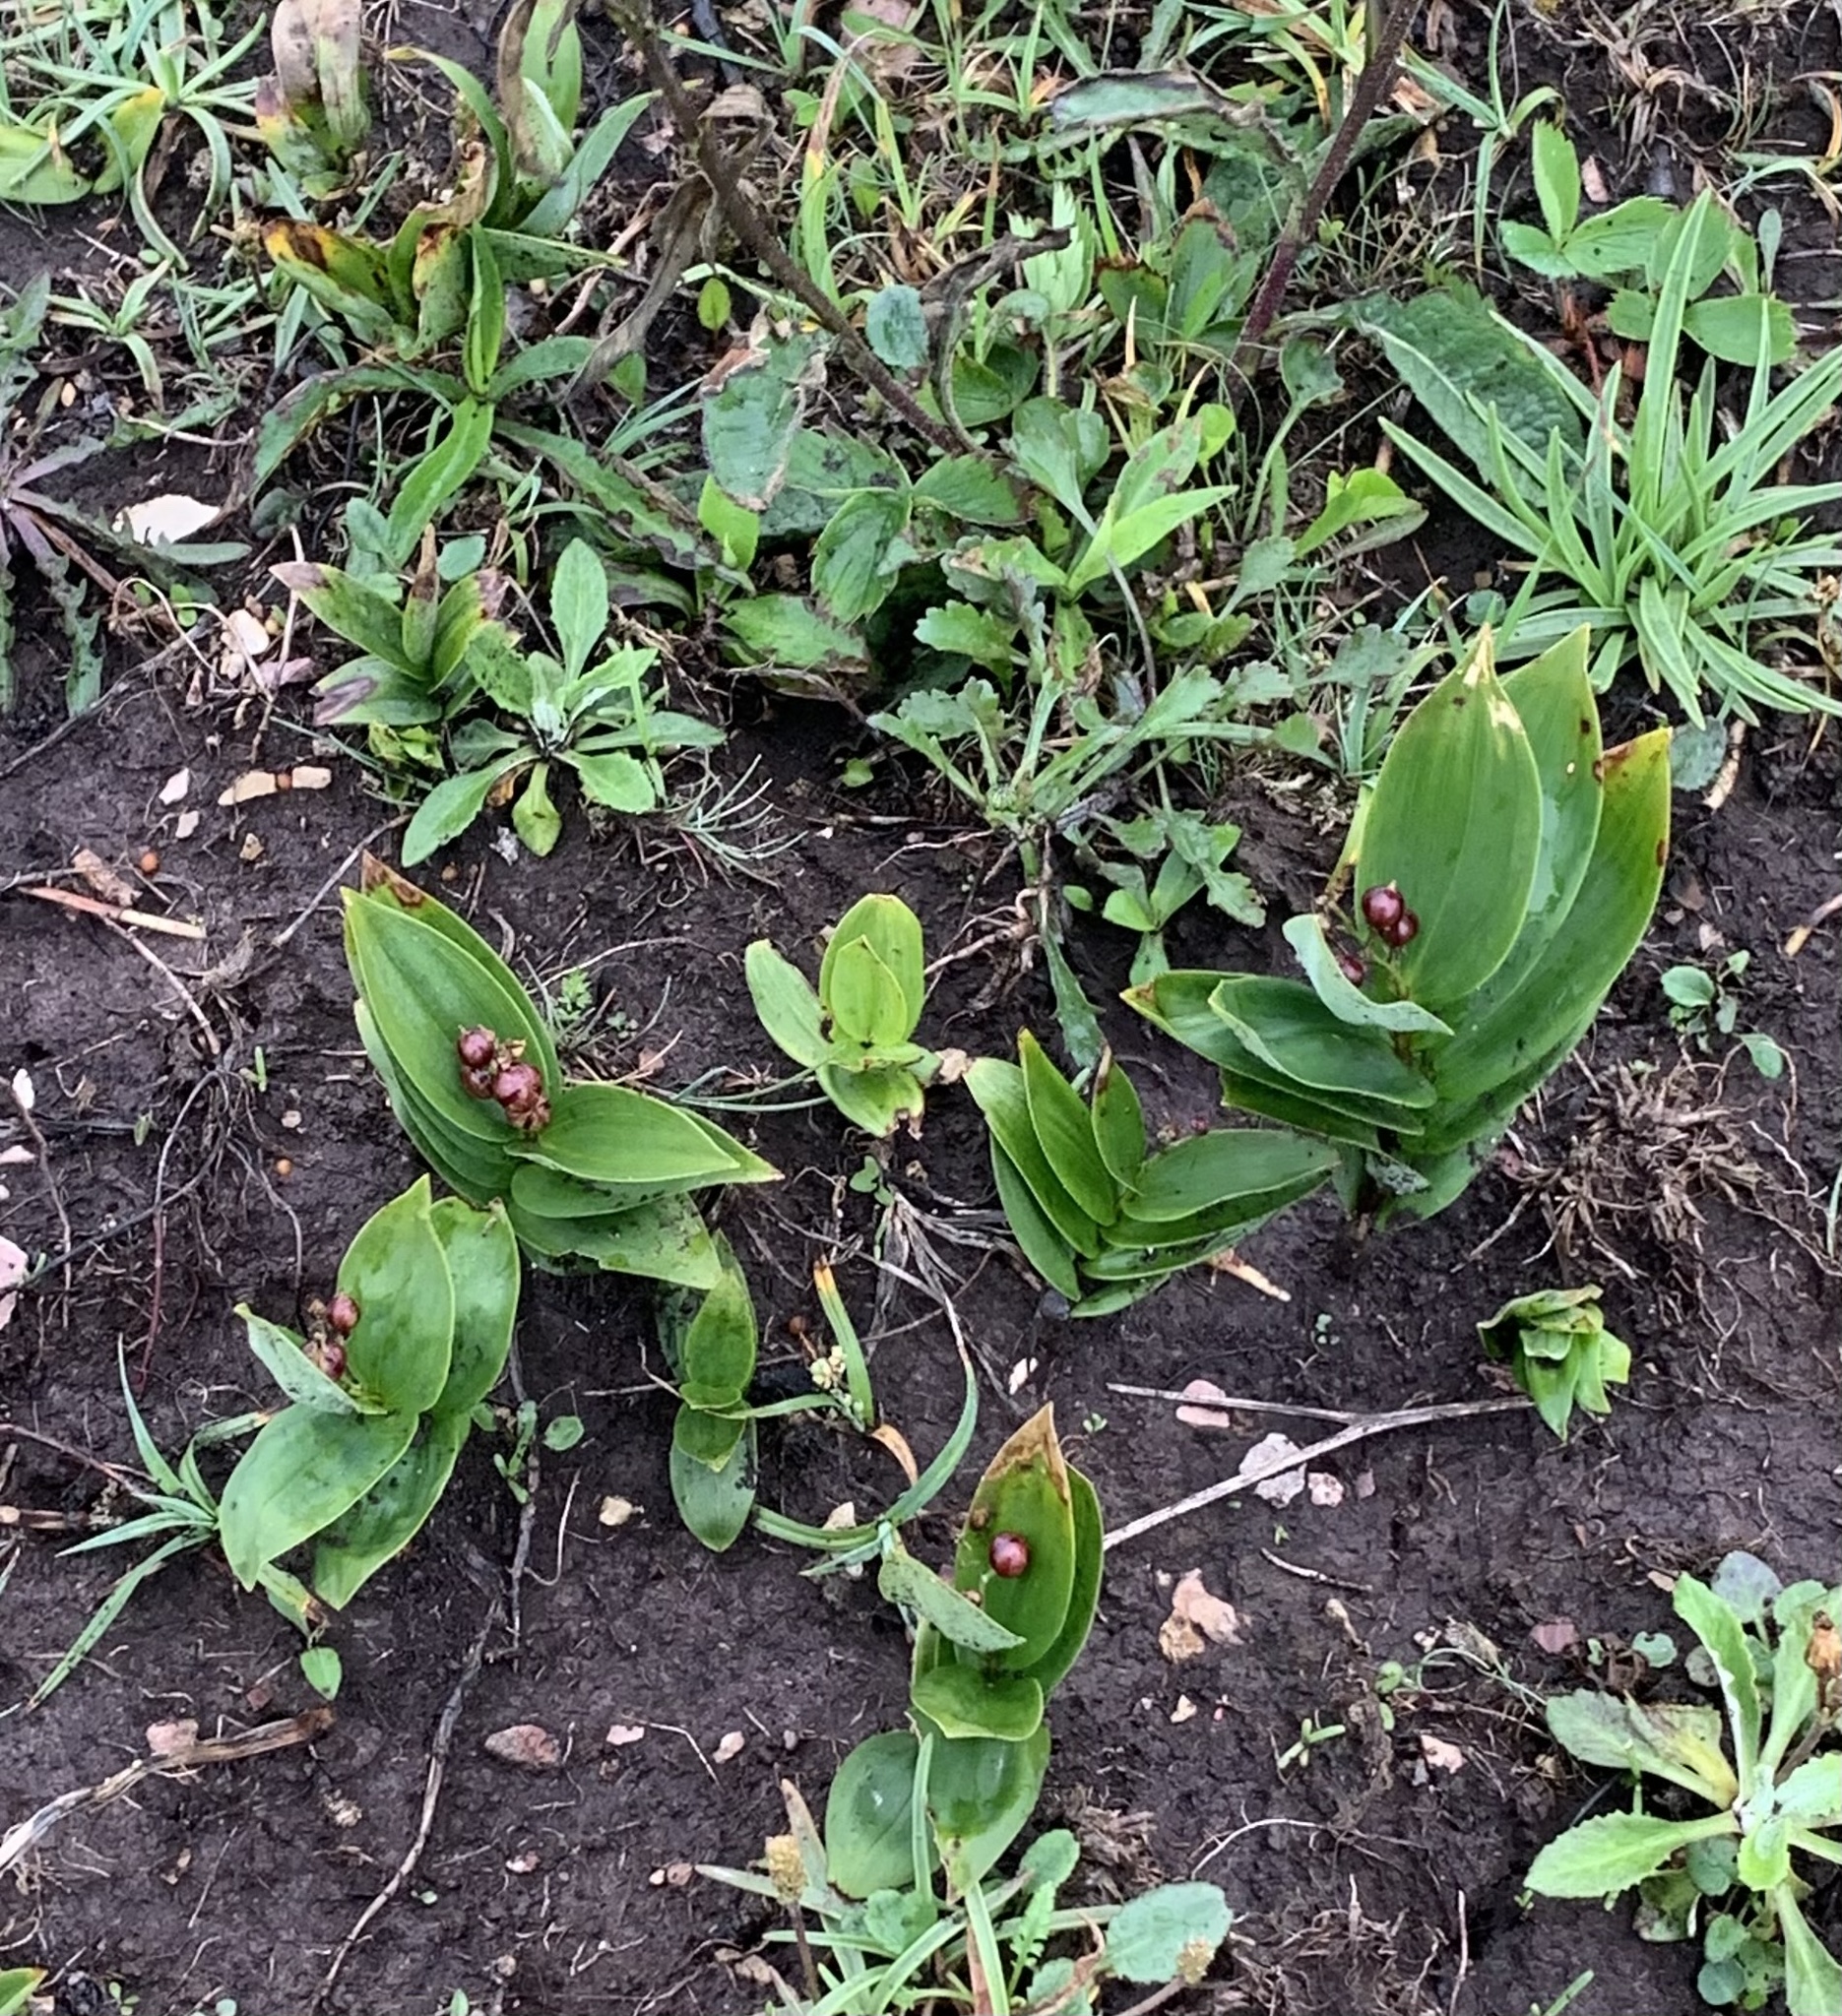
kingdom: Plantae
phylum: Tracheophyta
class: Liliopsida
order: Asparagales
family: Asparagaceae
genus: Maianthemum
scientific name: Maianthemum stellatum
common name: Little false solomon's seal
